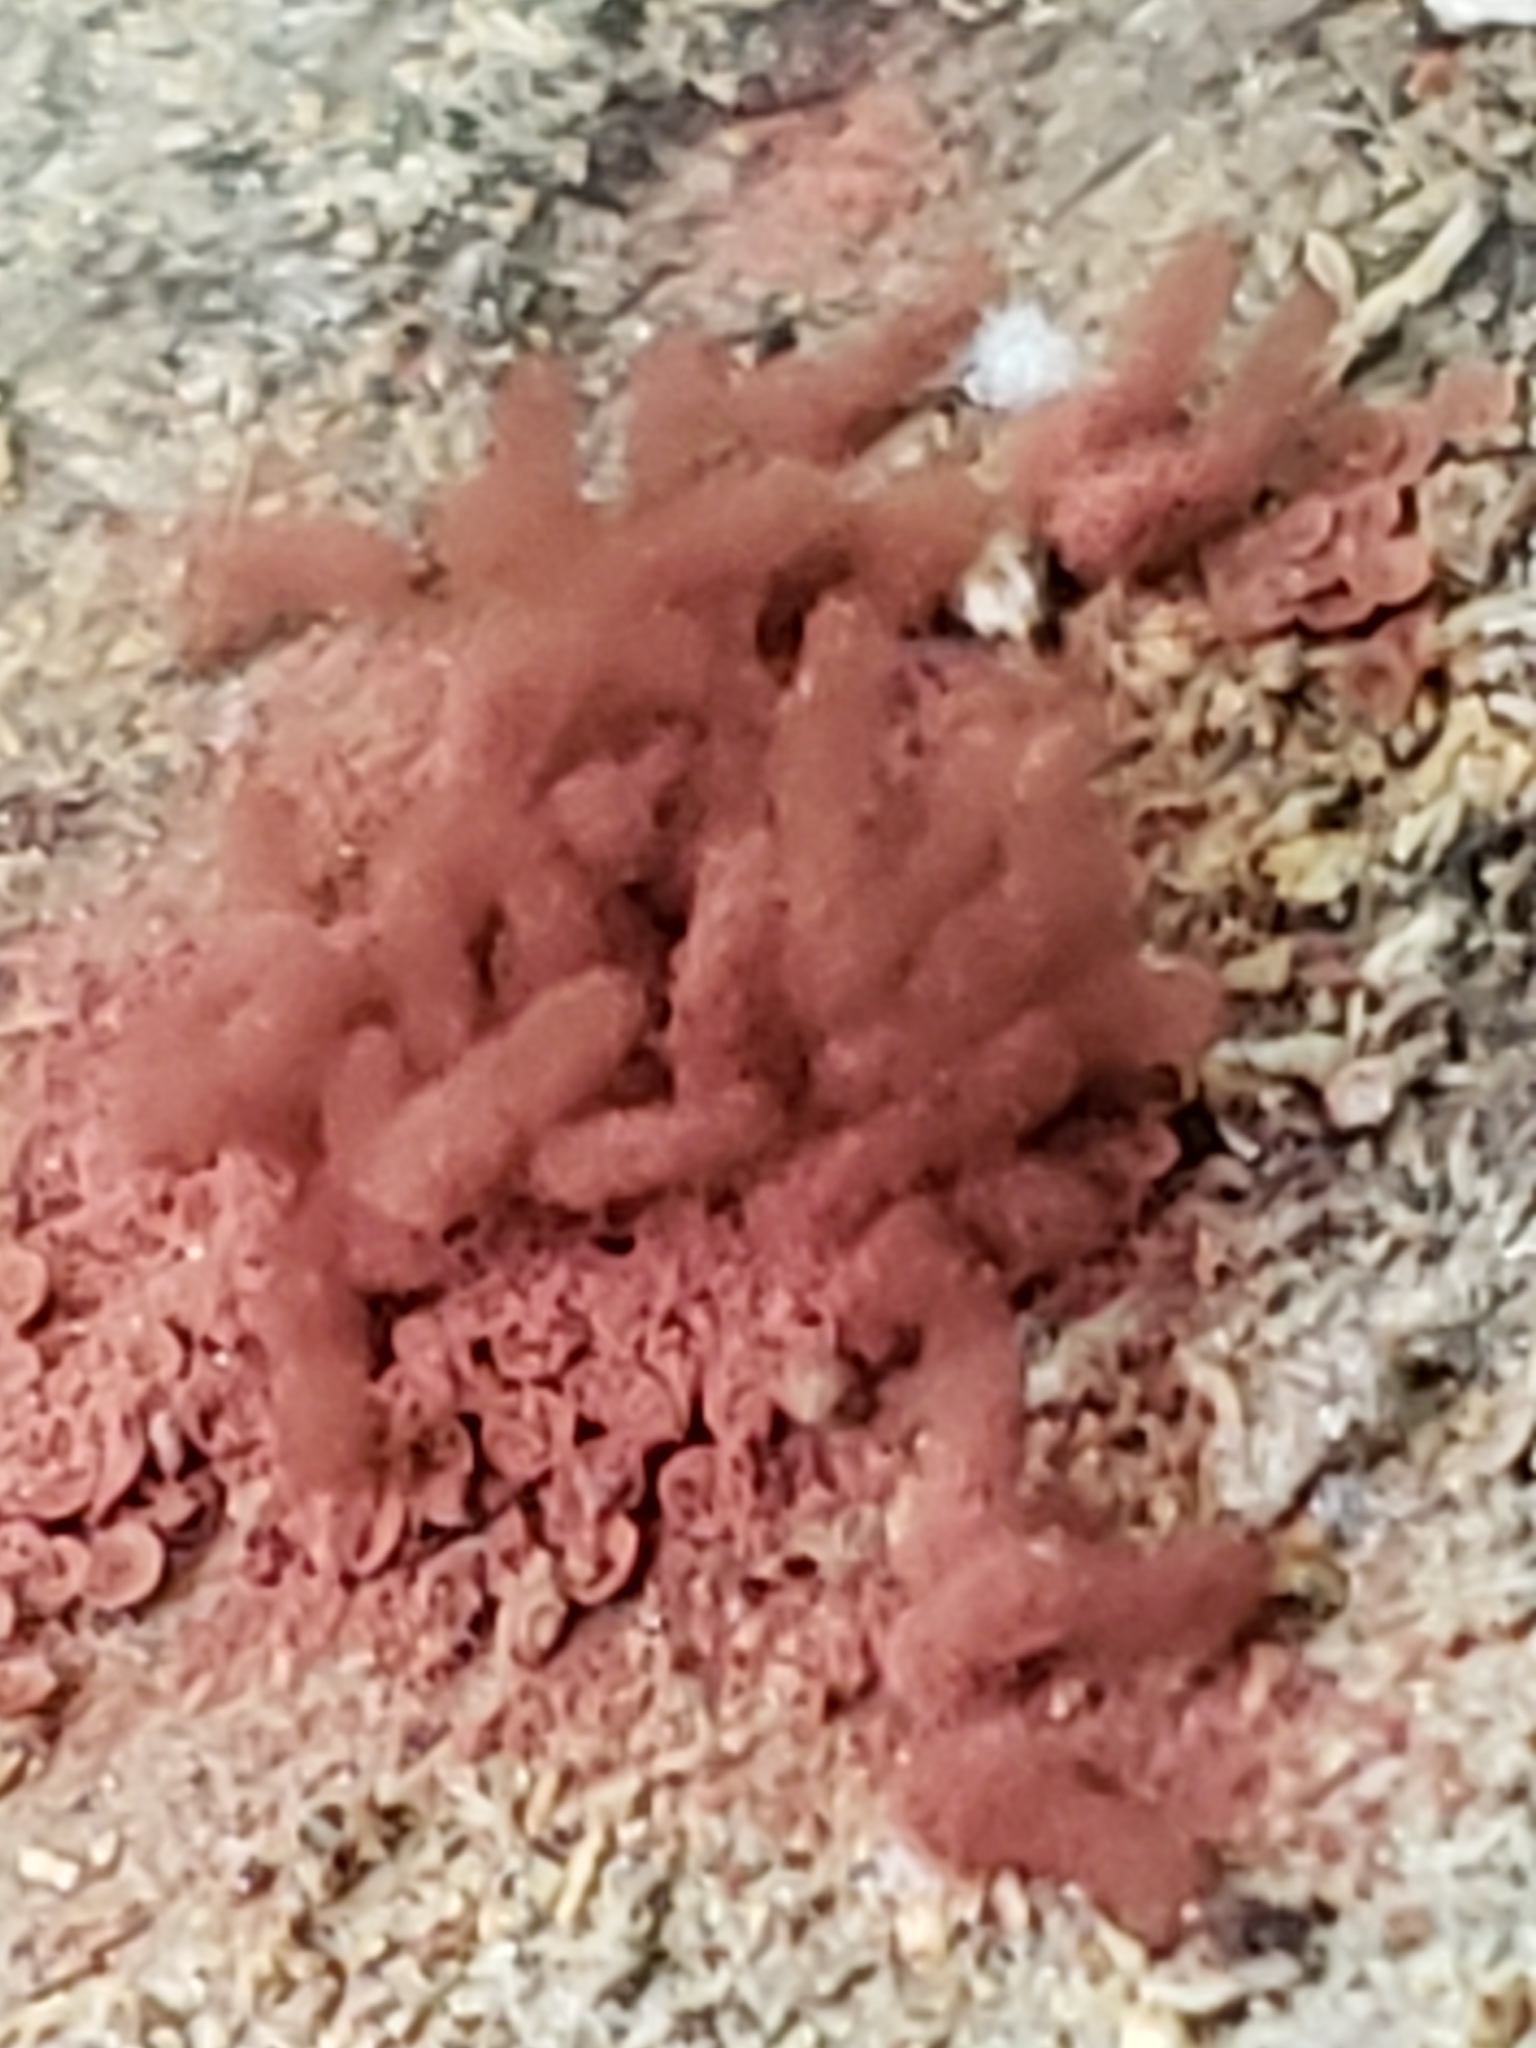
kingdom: Protozoa
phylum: Mycetozoa
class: Myxomycetes
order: Trichiales
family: Arcyriaceae
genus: Arcyria
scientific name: Arcyria denudata
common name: Carnival candy slime mold
